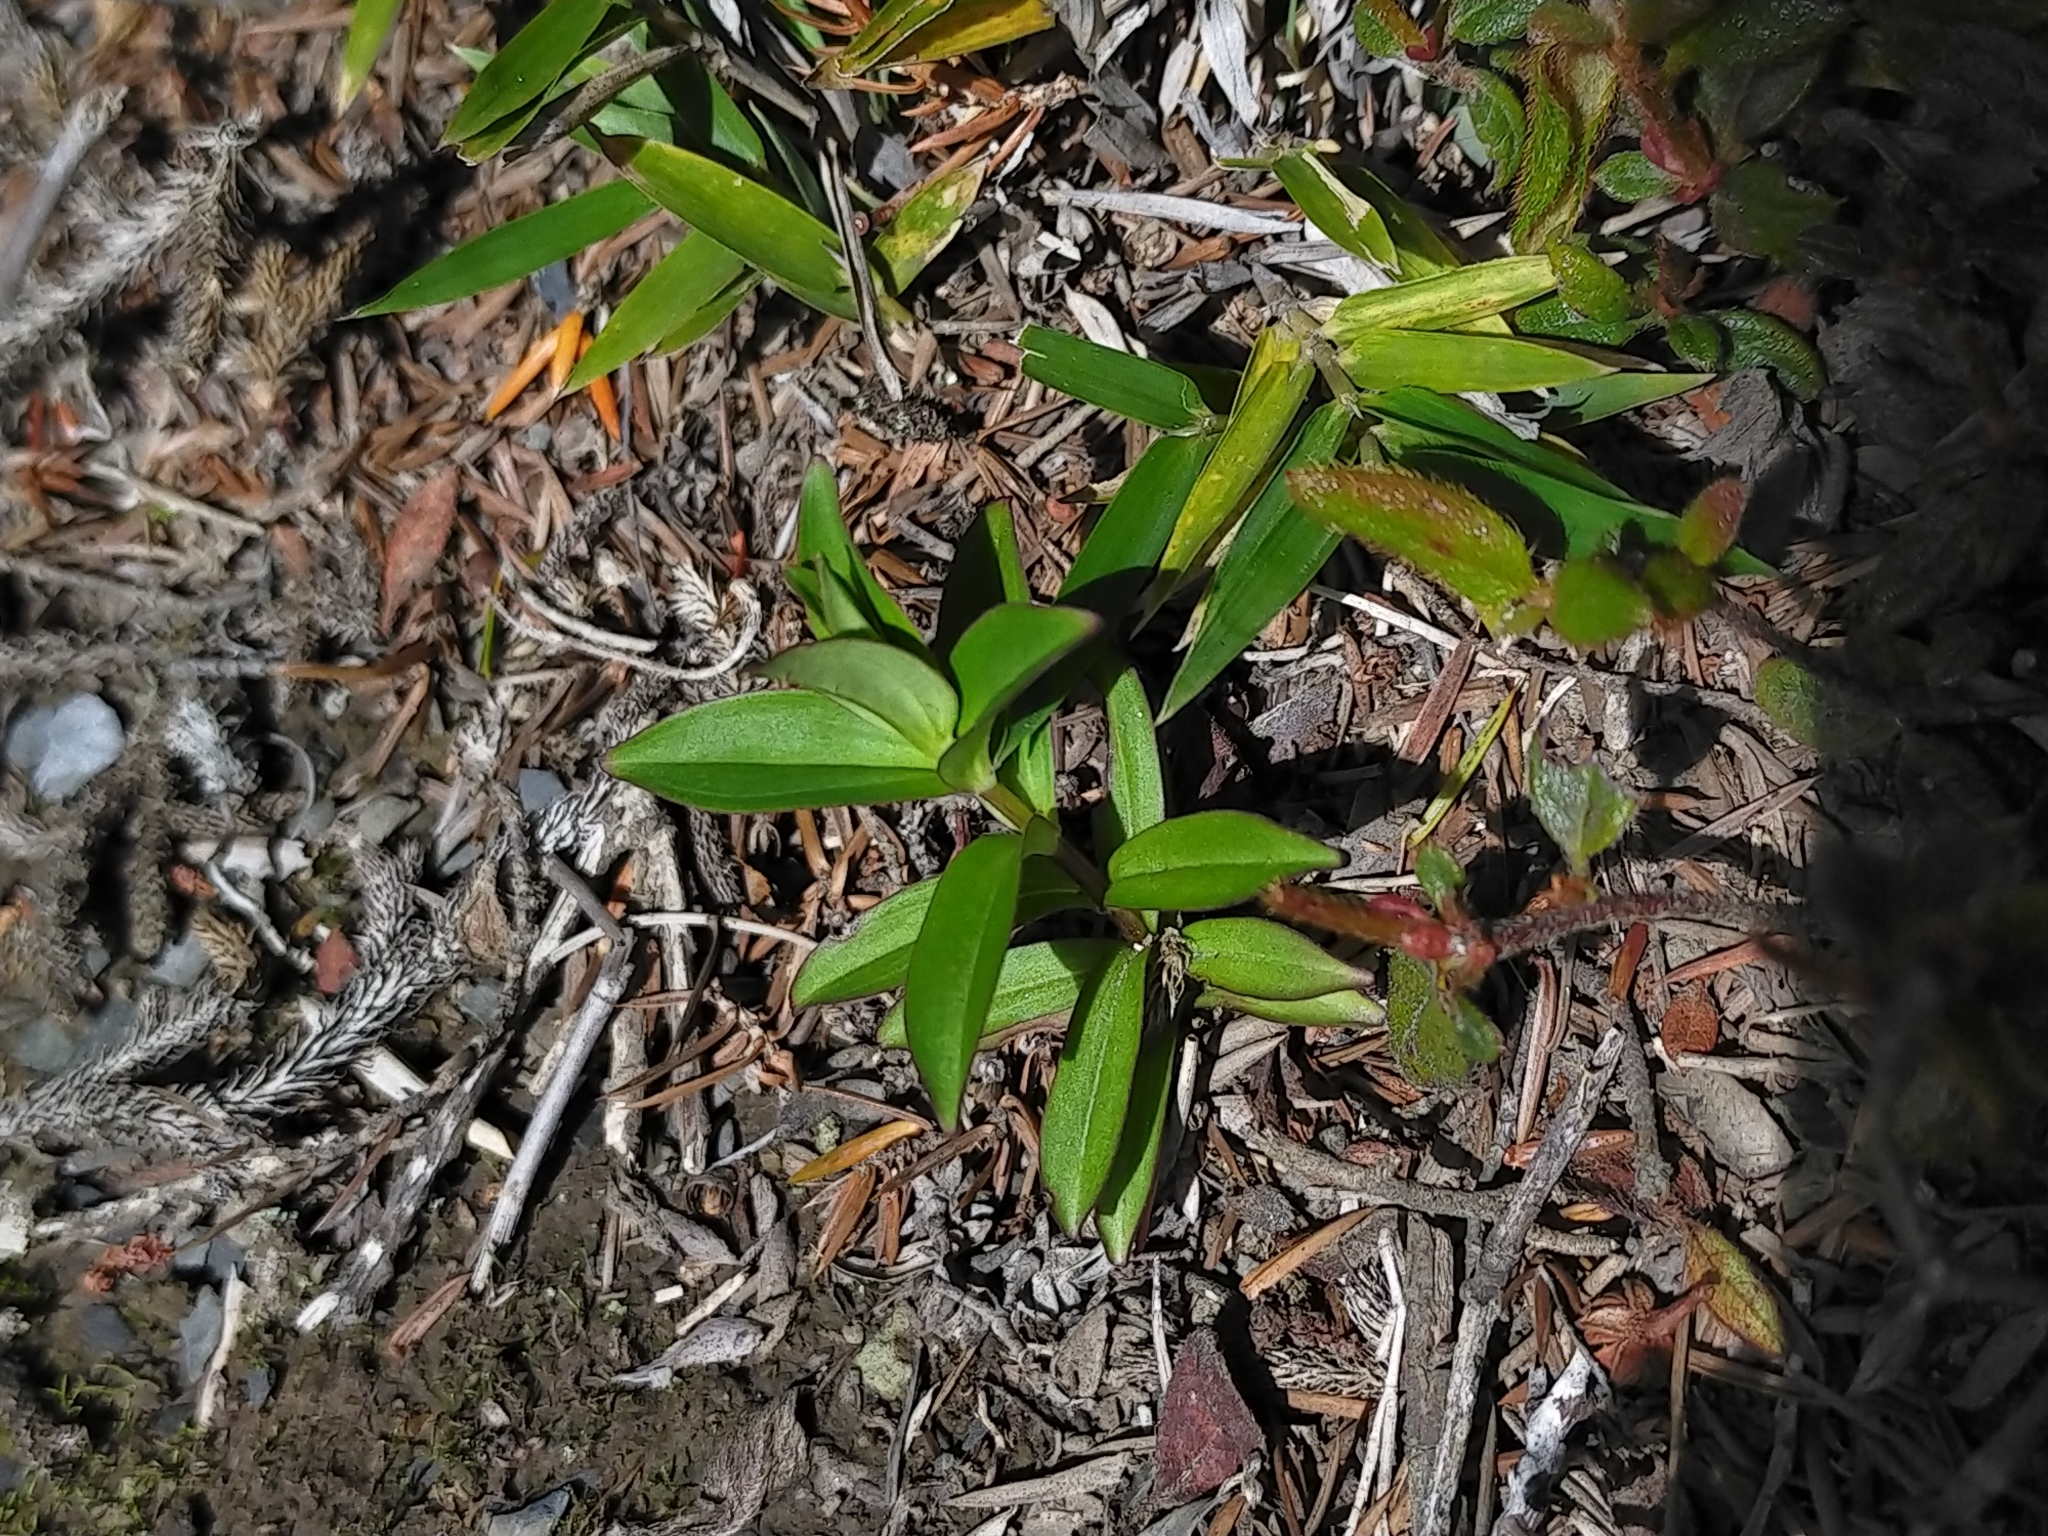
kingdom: Plantae
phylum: Tracheophyta
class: Magnoliopsida
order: Gentianales
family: Gentianaceae
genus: Swertia
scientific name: Swertia macrosperma
